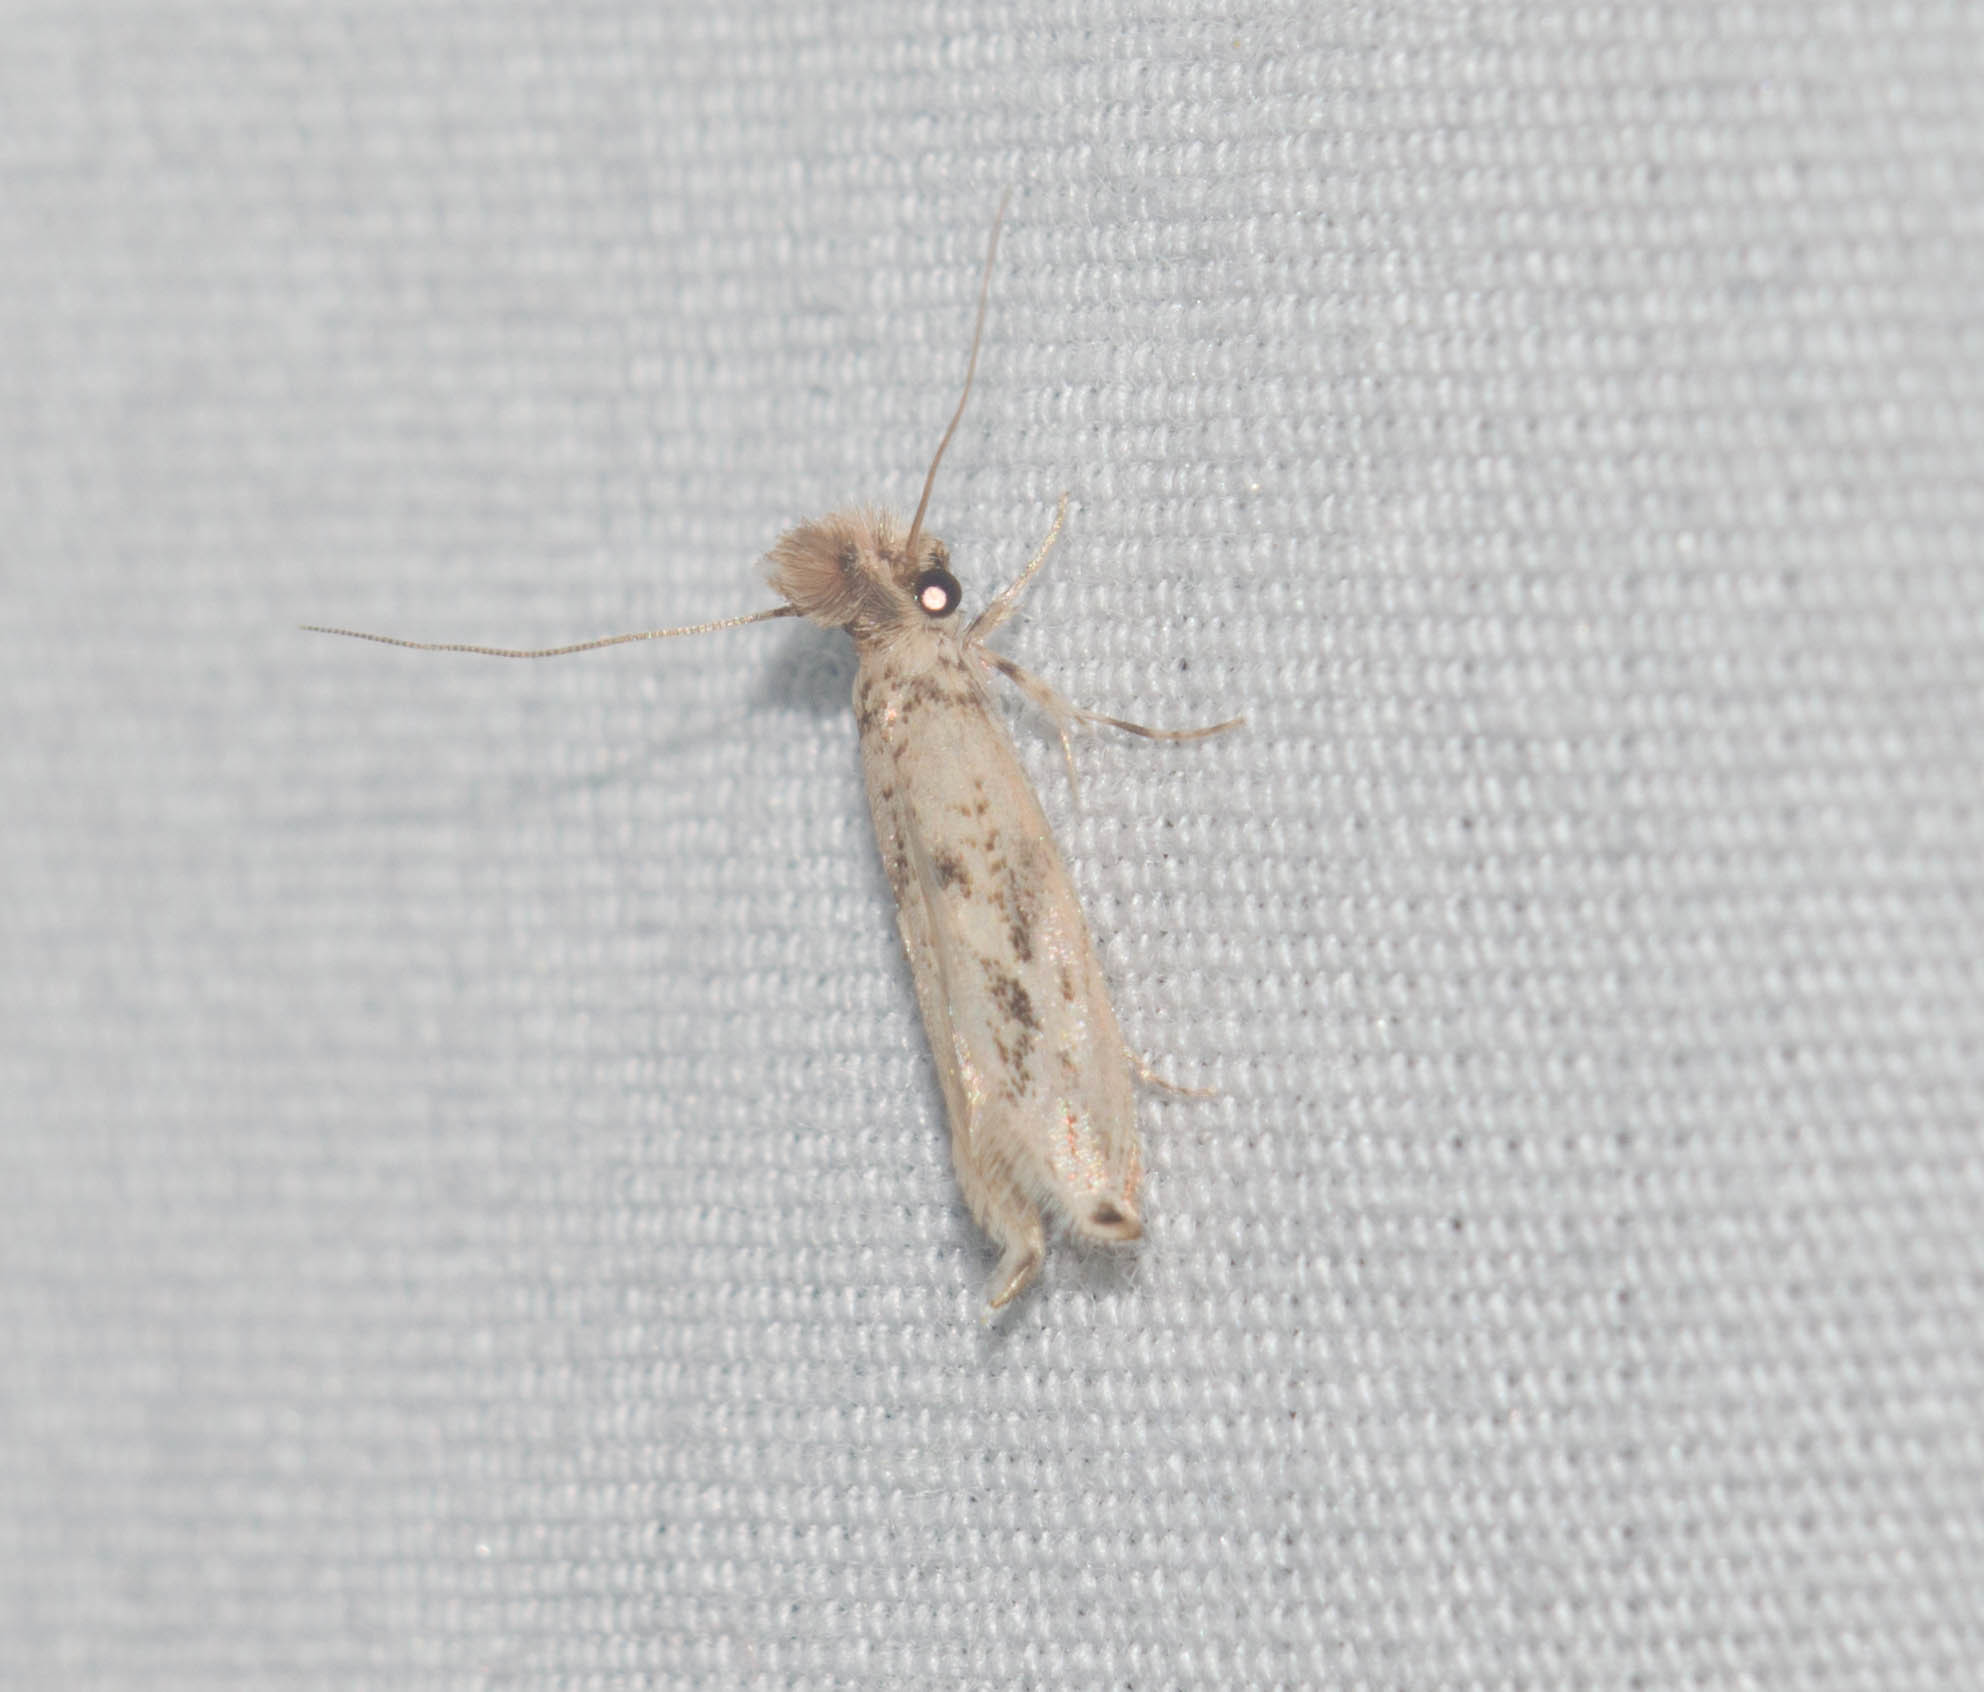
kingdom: Animalia
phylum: Arthropoda
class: Insecta
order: Lepidoptera
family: Tineidae
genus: Erechthias
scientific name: Erechthias pelotricha
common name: Fungus moth
